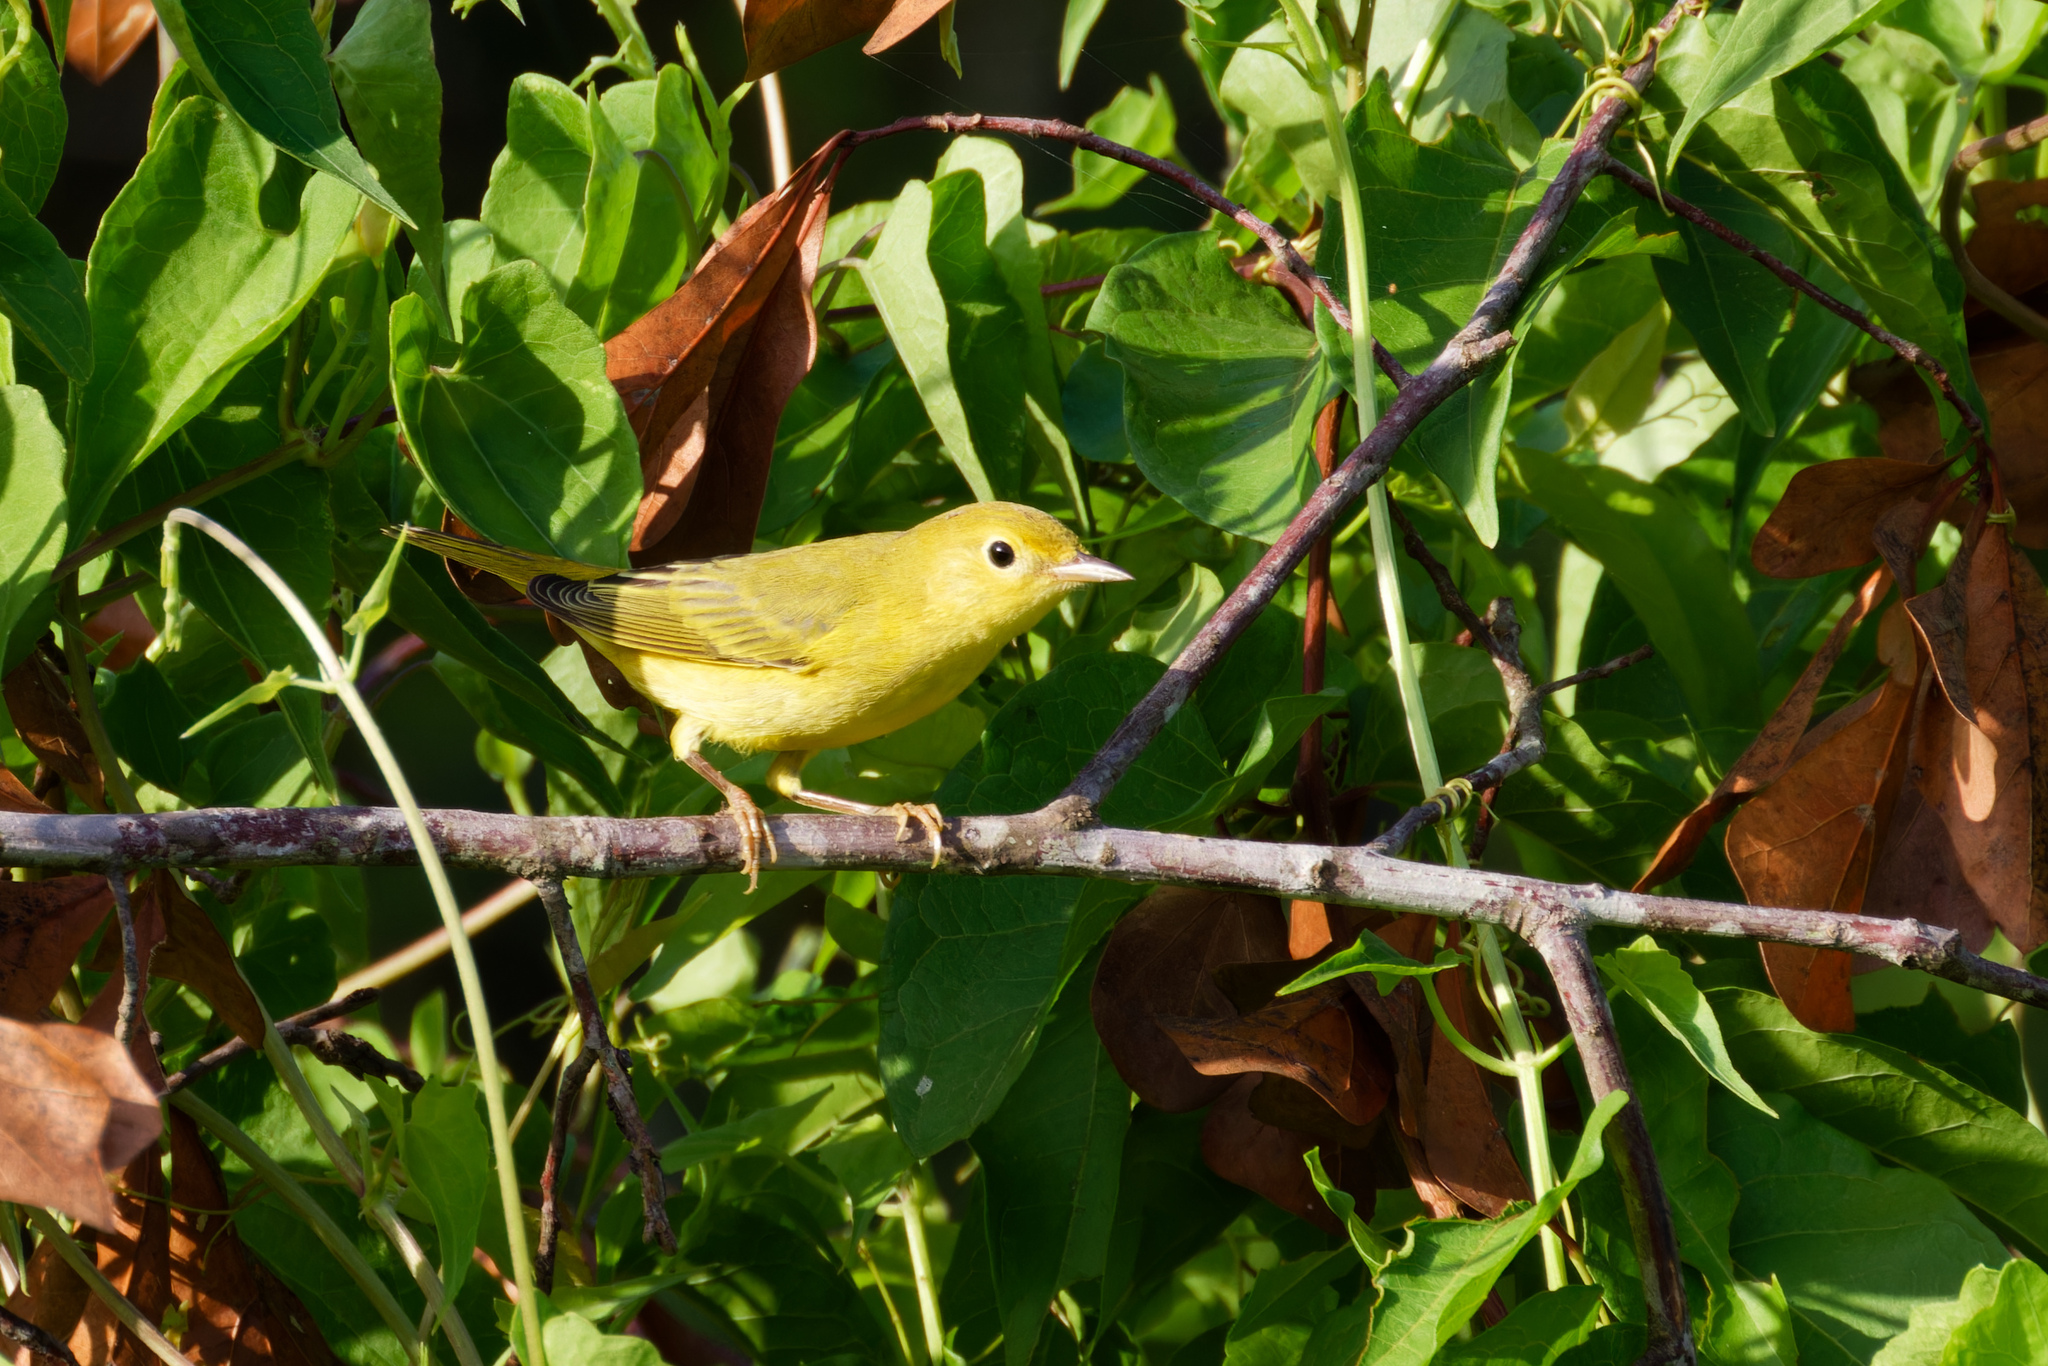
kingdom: Animalia
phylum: Chordata
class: Aves
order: Passeriformes
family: Parulidae
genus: Setophaga
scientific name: Setophaga petechia
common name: Yellow warbler
